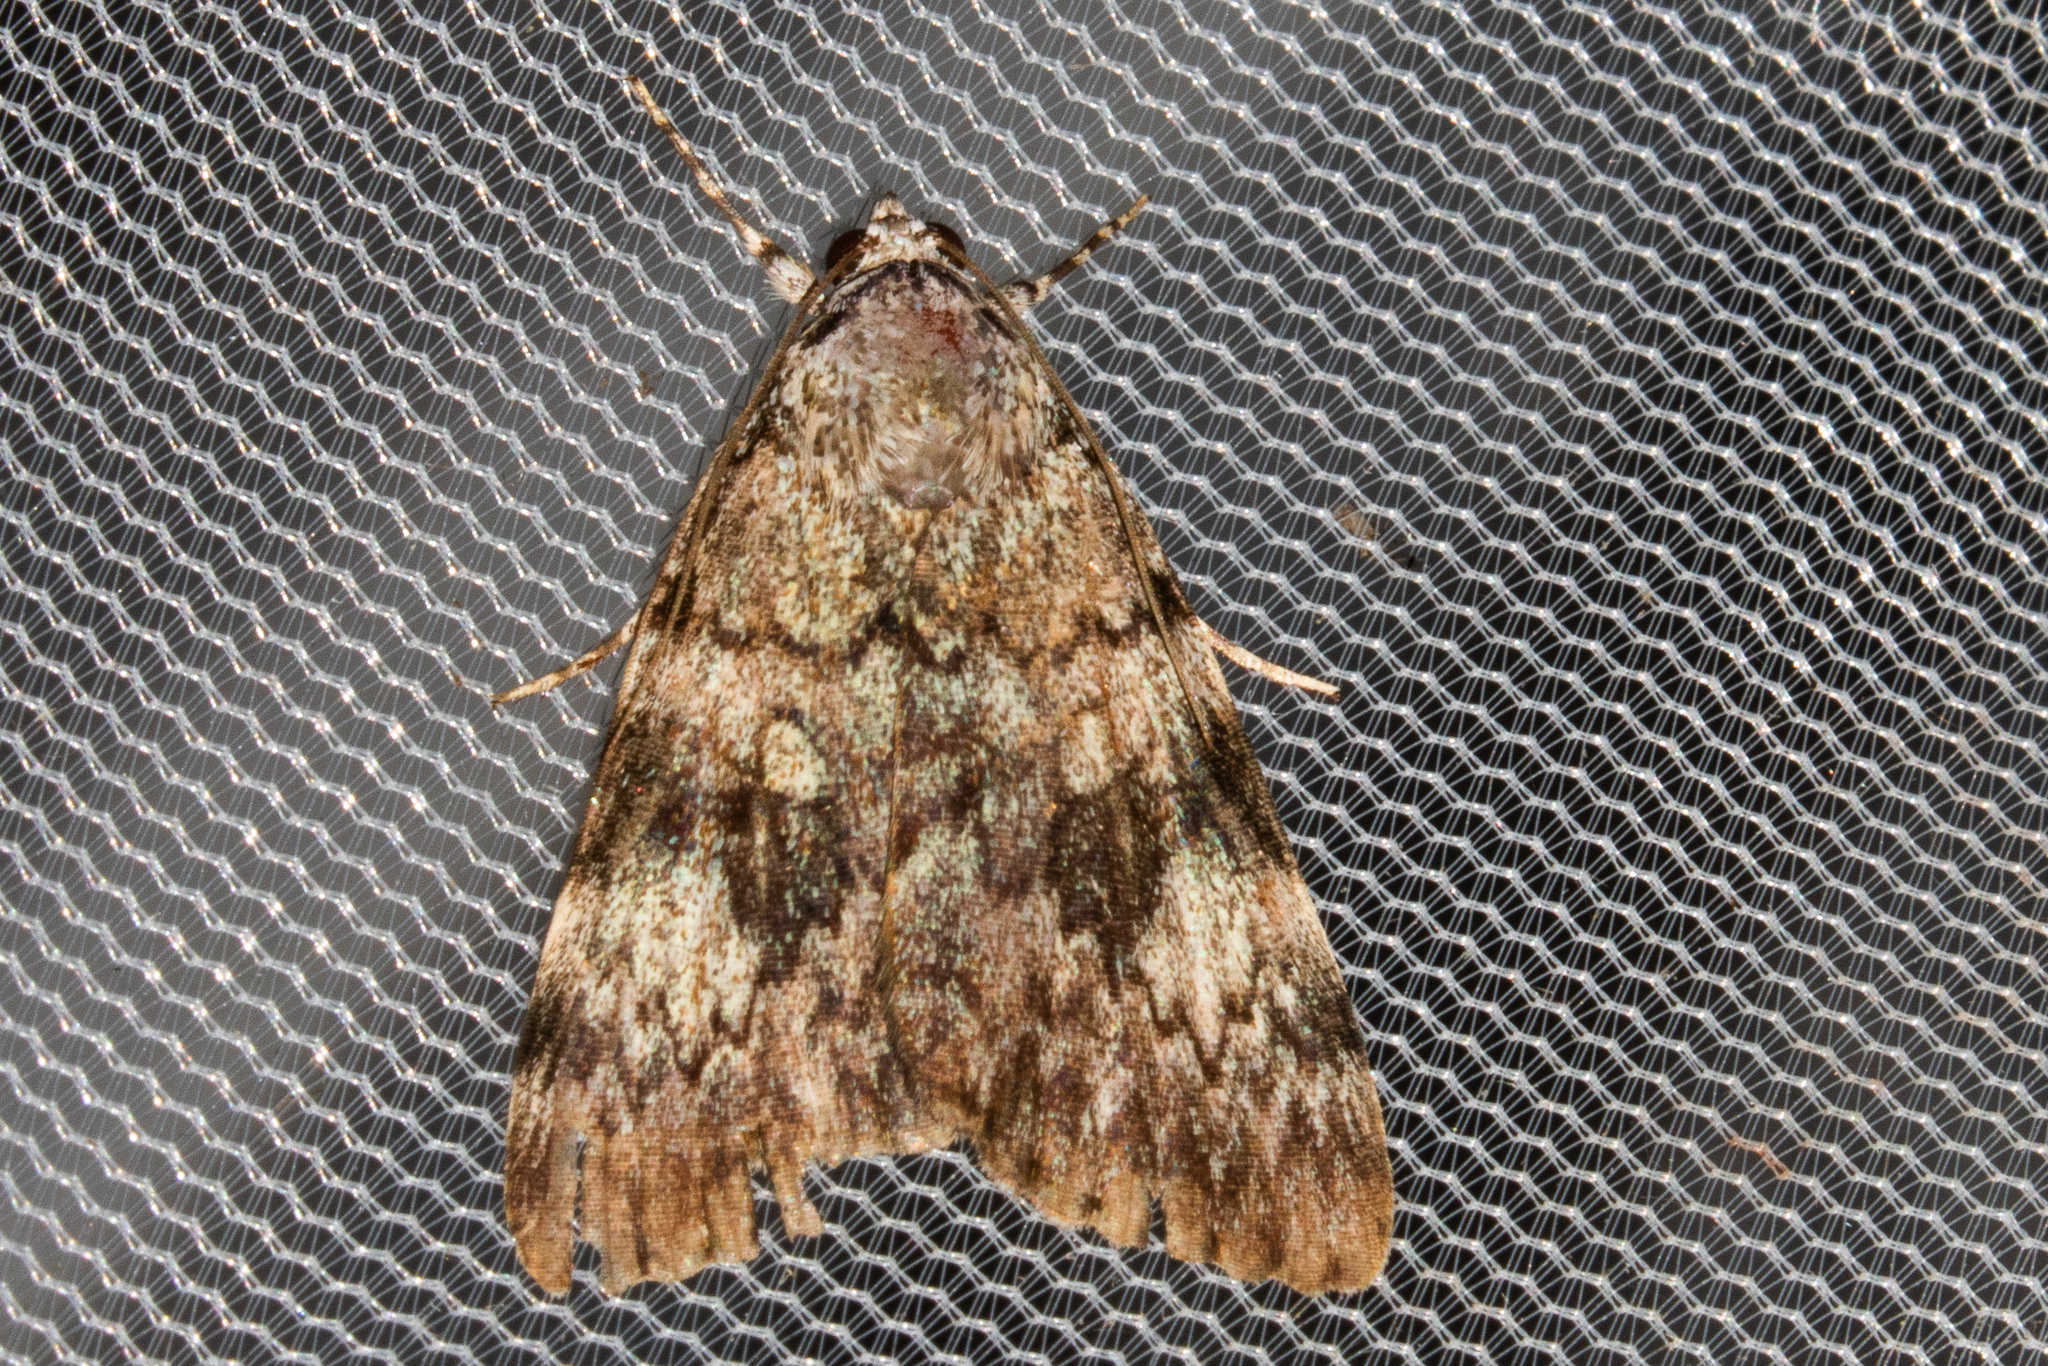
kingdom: Animalia
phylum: Arthropoda
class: Insecta
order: Lepidoptera
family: Erebidae
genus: Catocala
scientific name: Catocala lineella
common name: Little lined underwing
